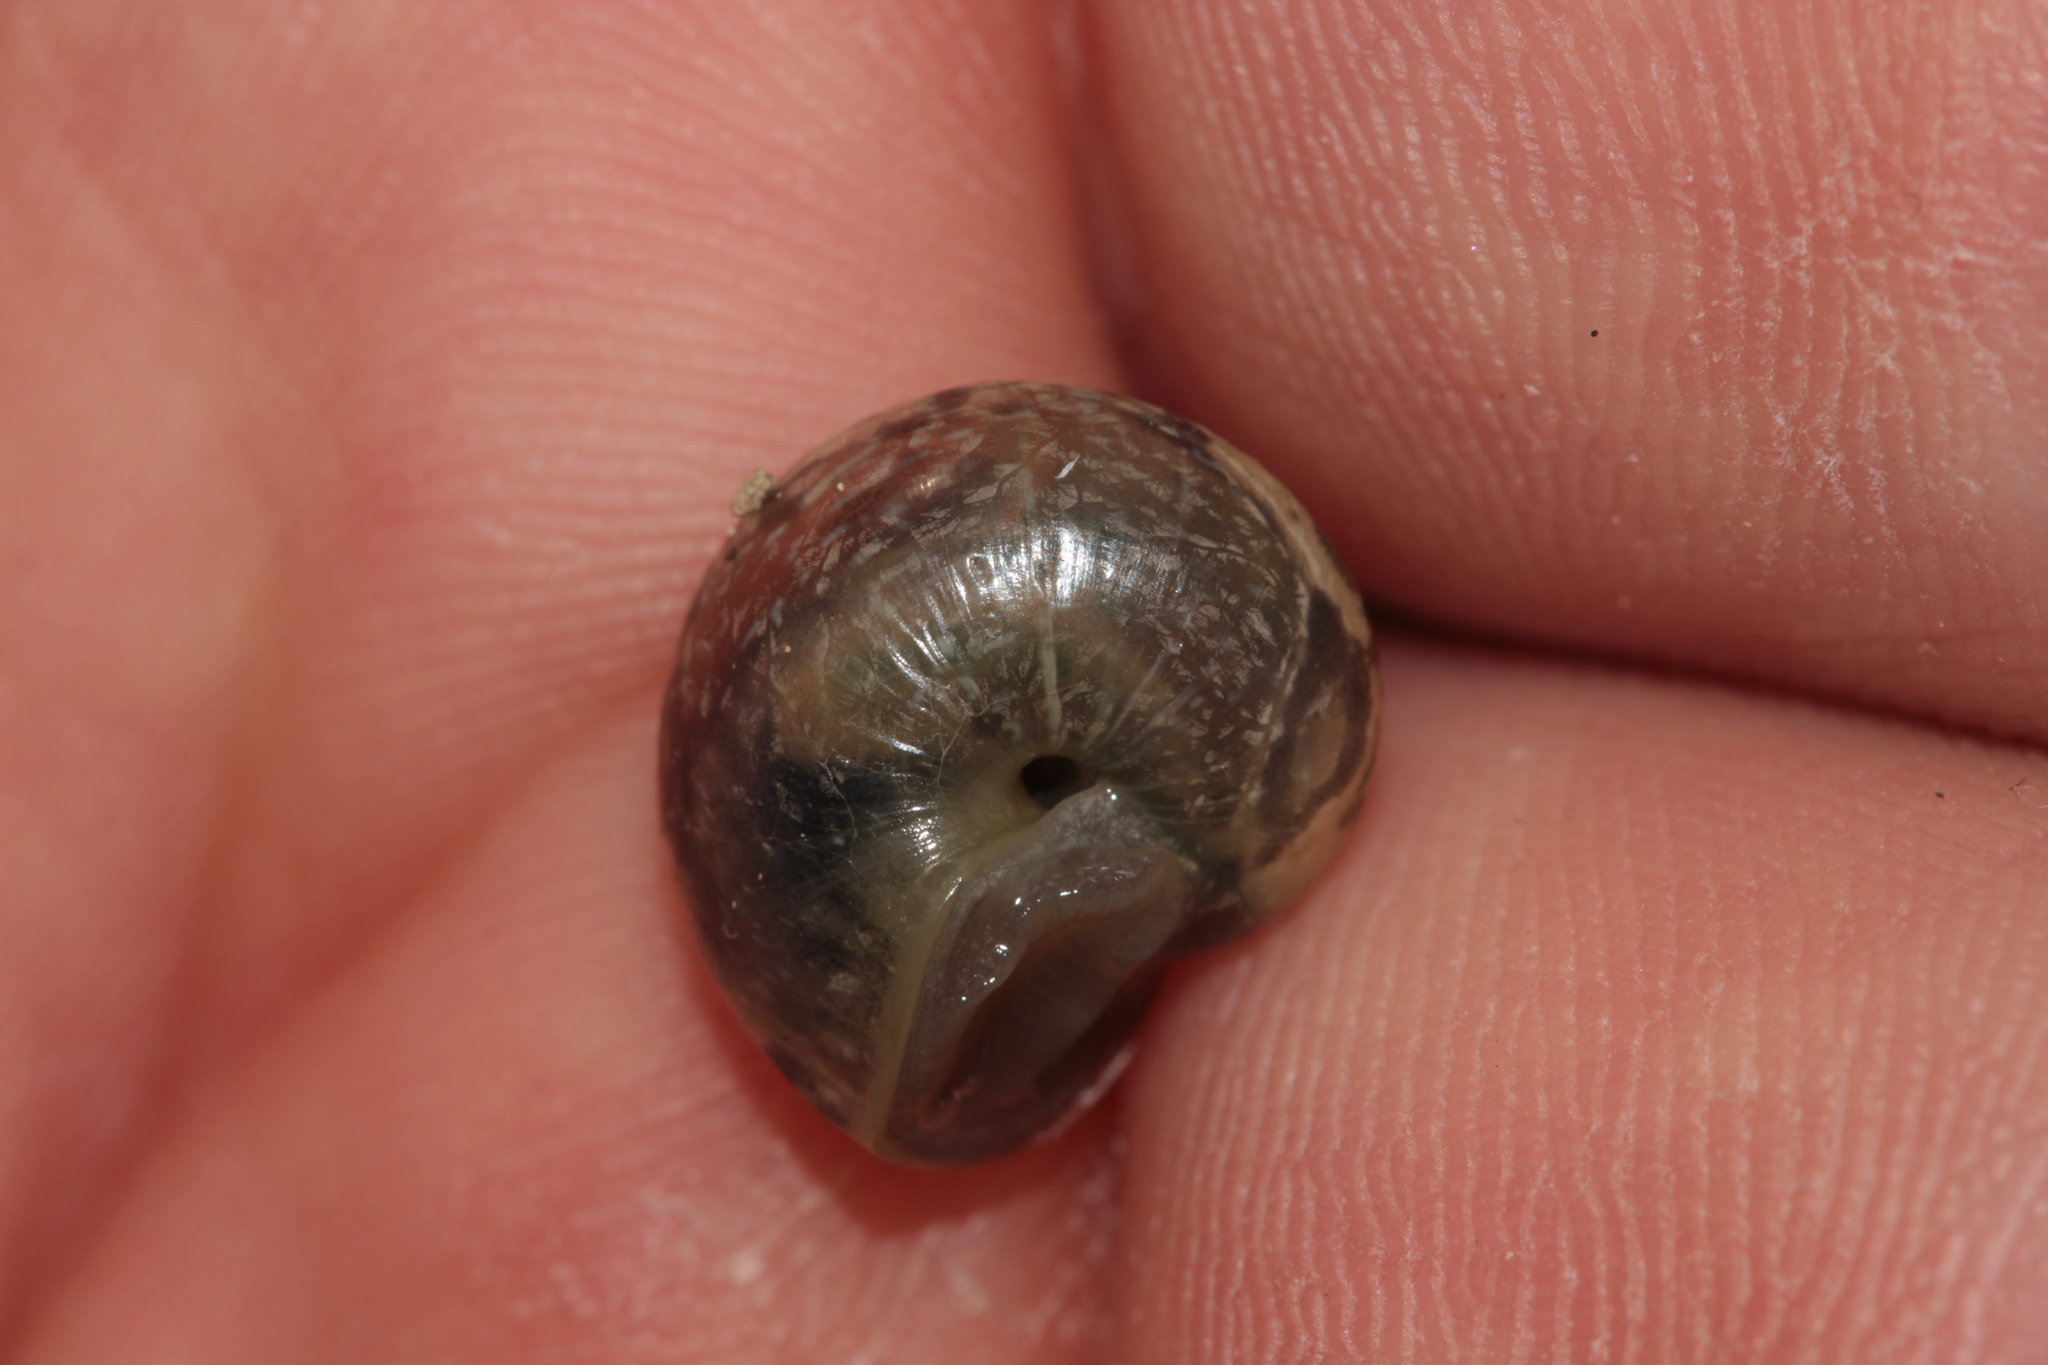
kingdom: Animalia
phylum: Mollusca
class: Gastropoda
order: Stylommatophora
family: Helicidae
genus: Arianta
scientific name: Arianta arbustorum
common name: Copse snail
